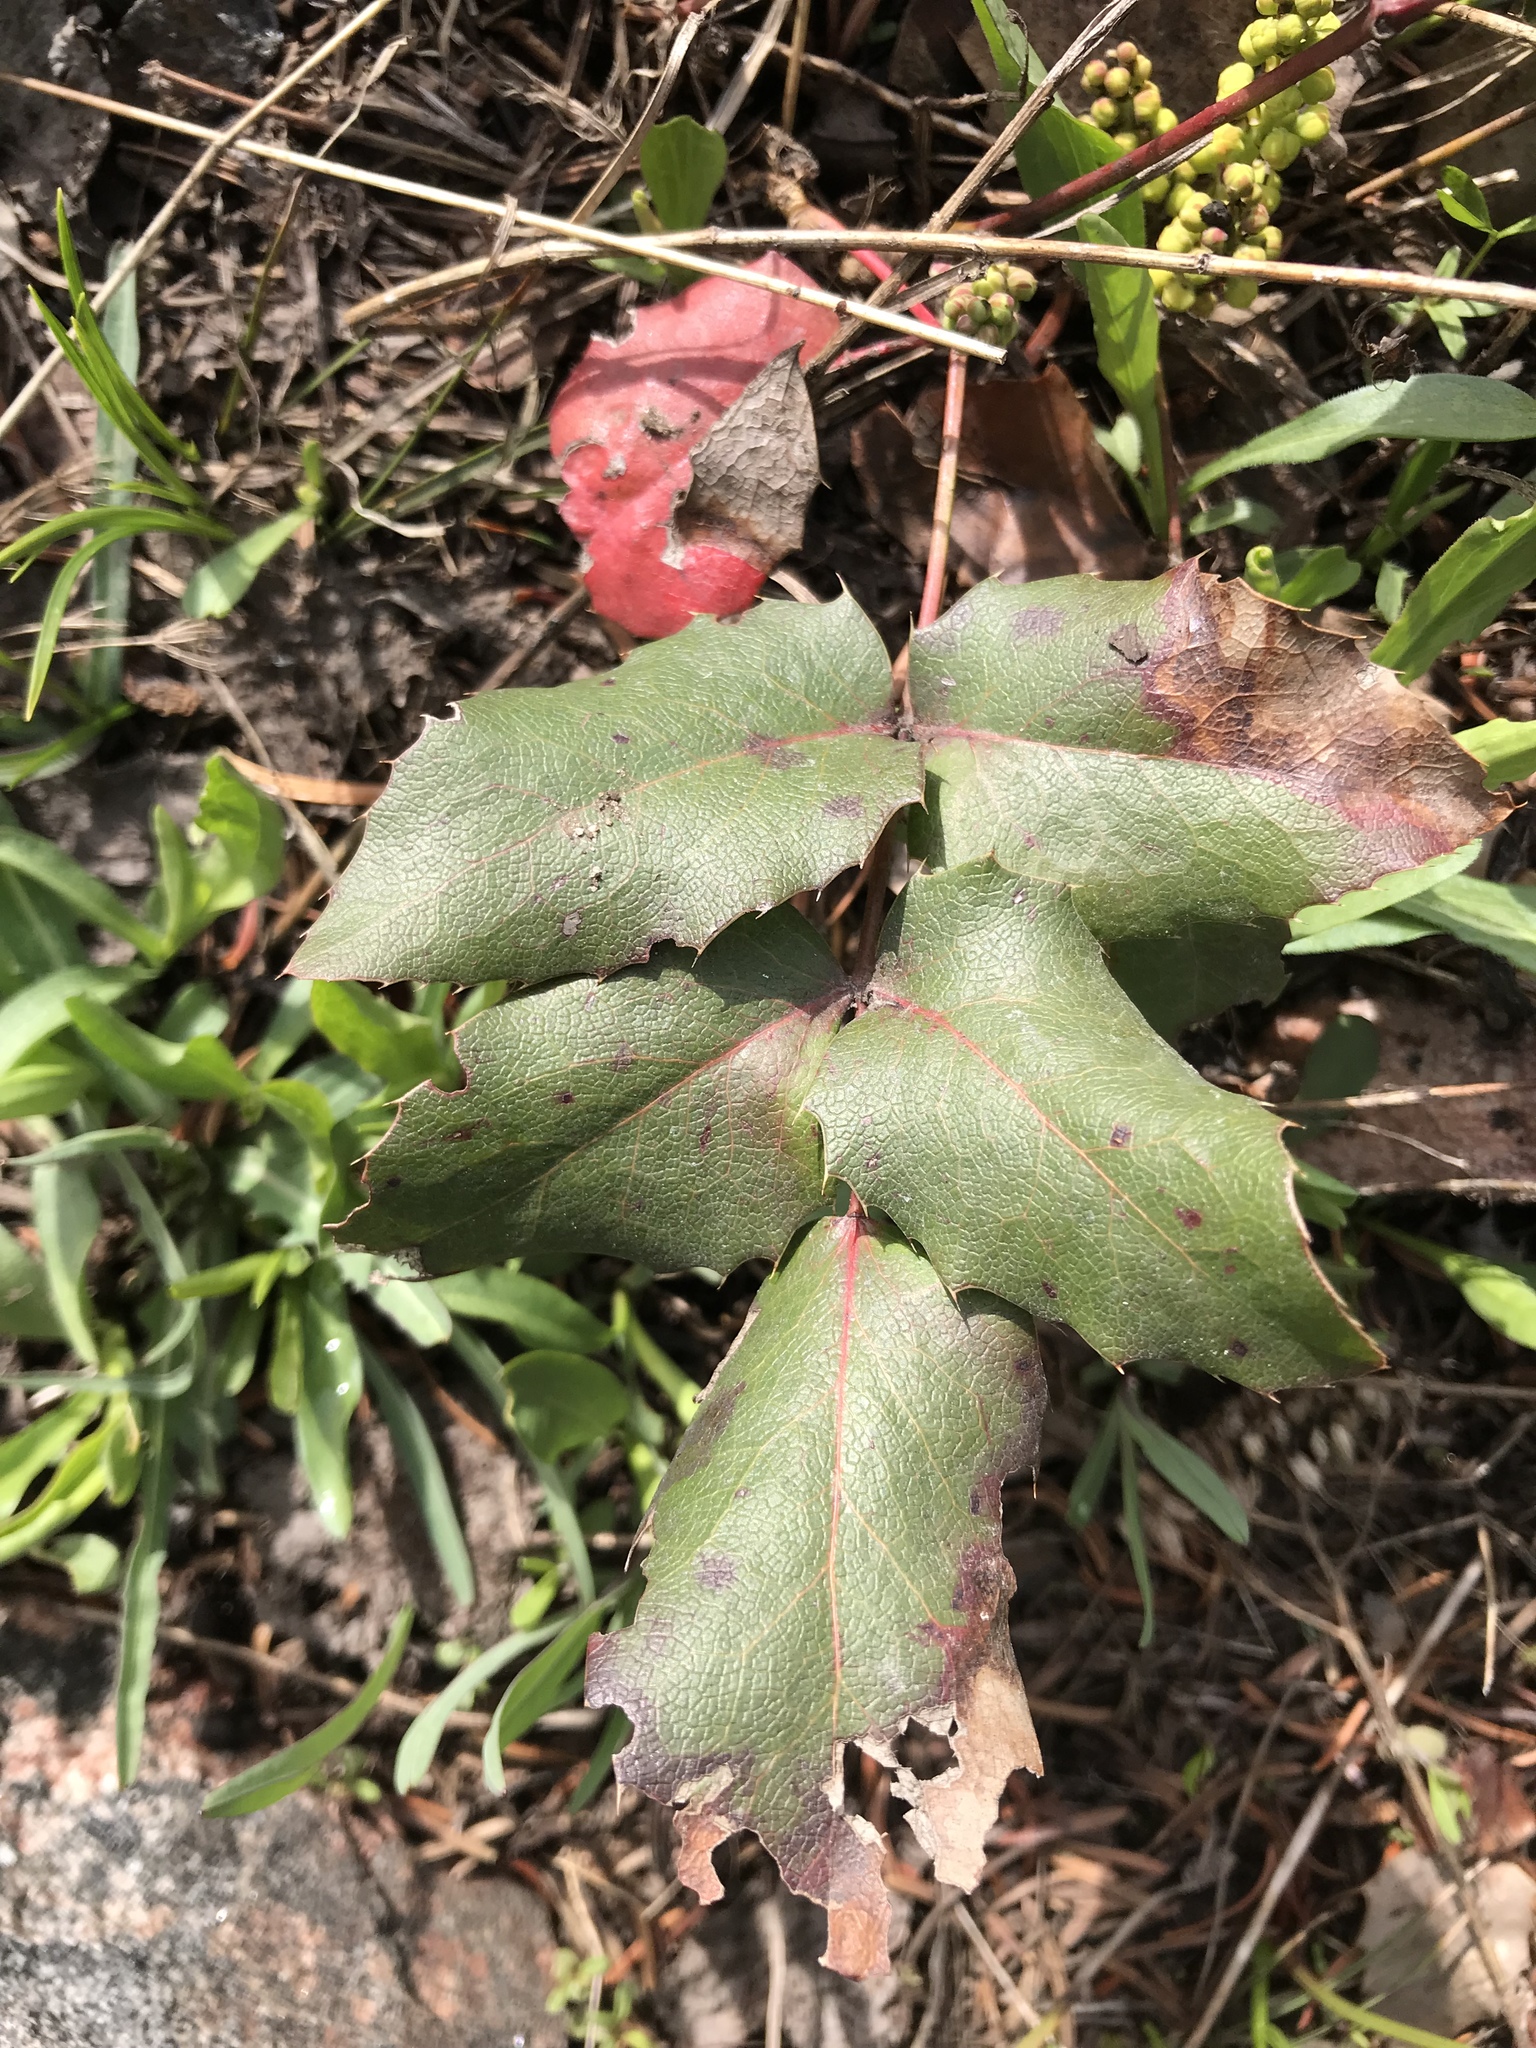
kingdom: Plantae
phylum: Tracheophyta
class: Magnoliopsida
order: Ranunculales
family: Berberidaceae
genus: Mahonia
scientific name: Mahonia repens
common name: Creeping oregon-grape
